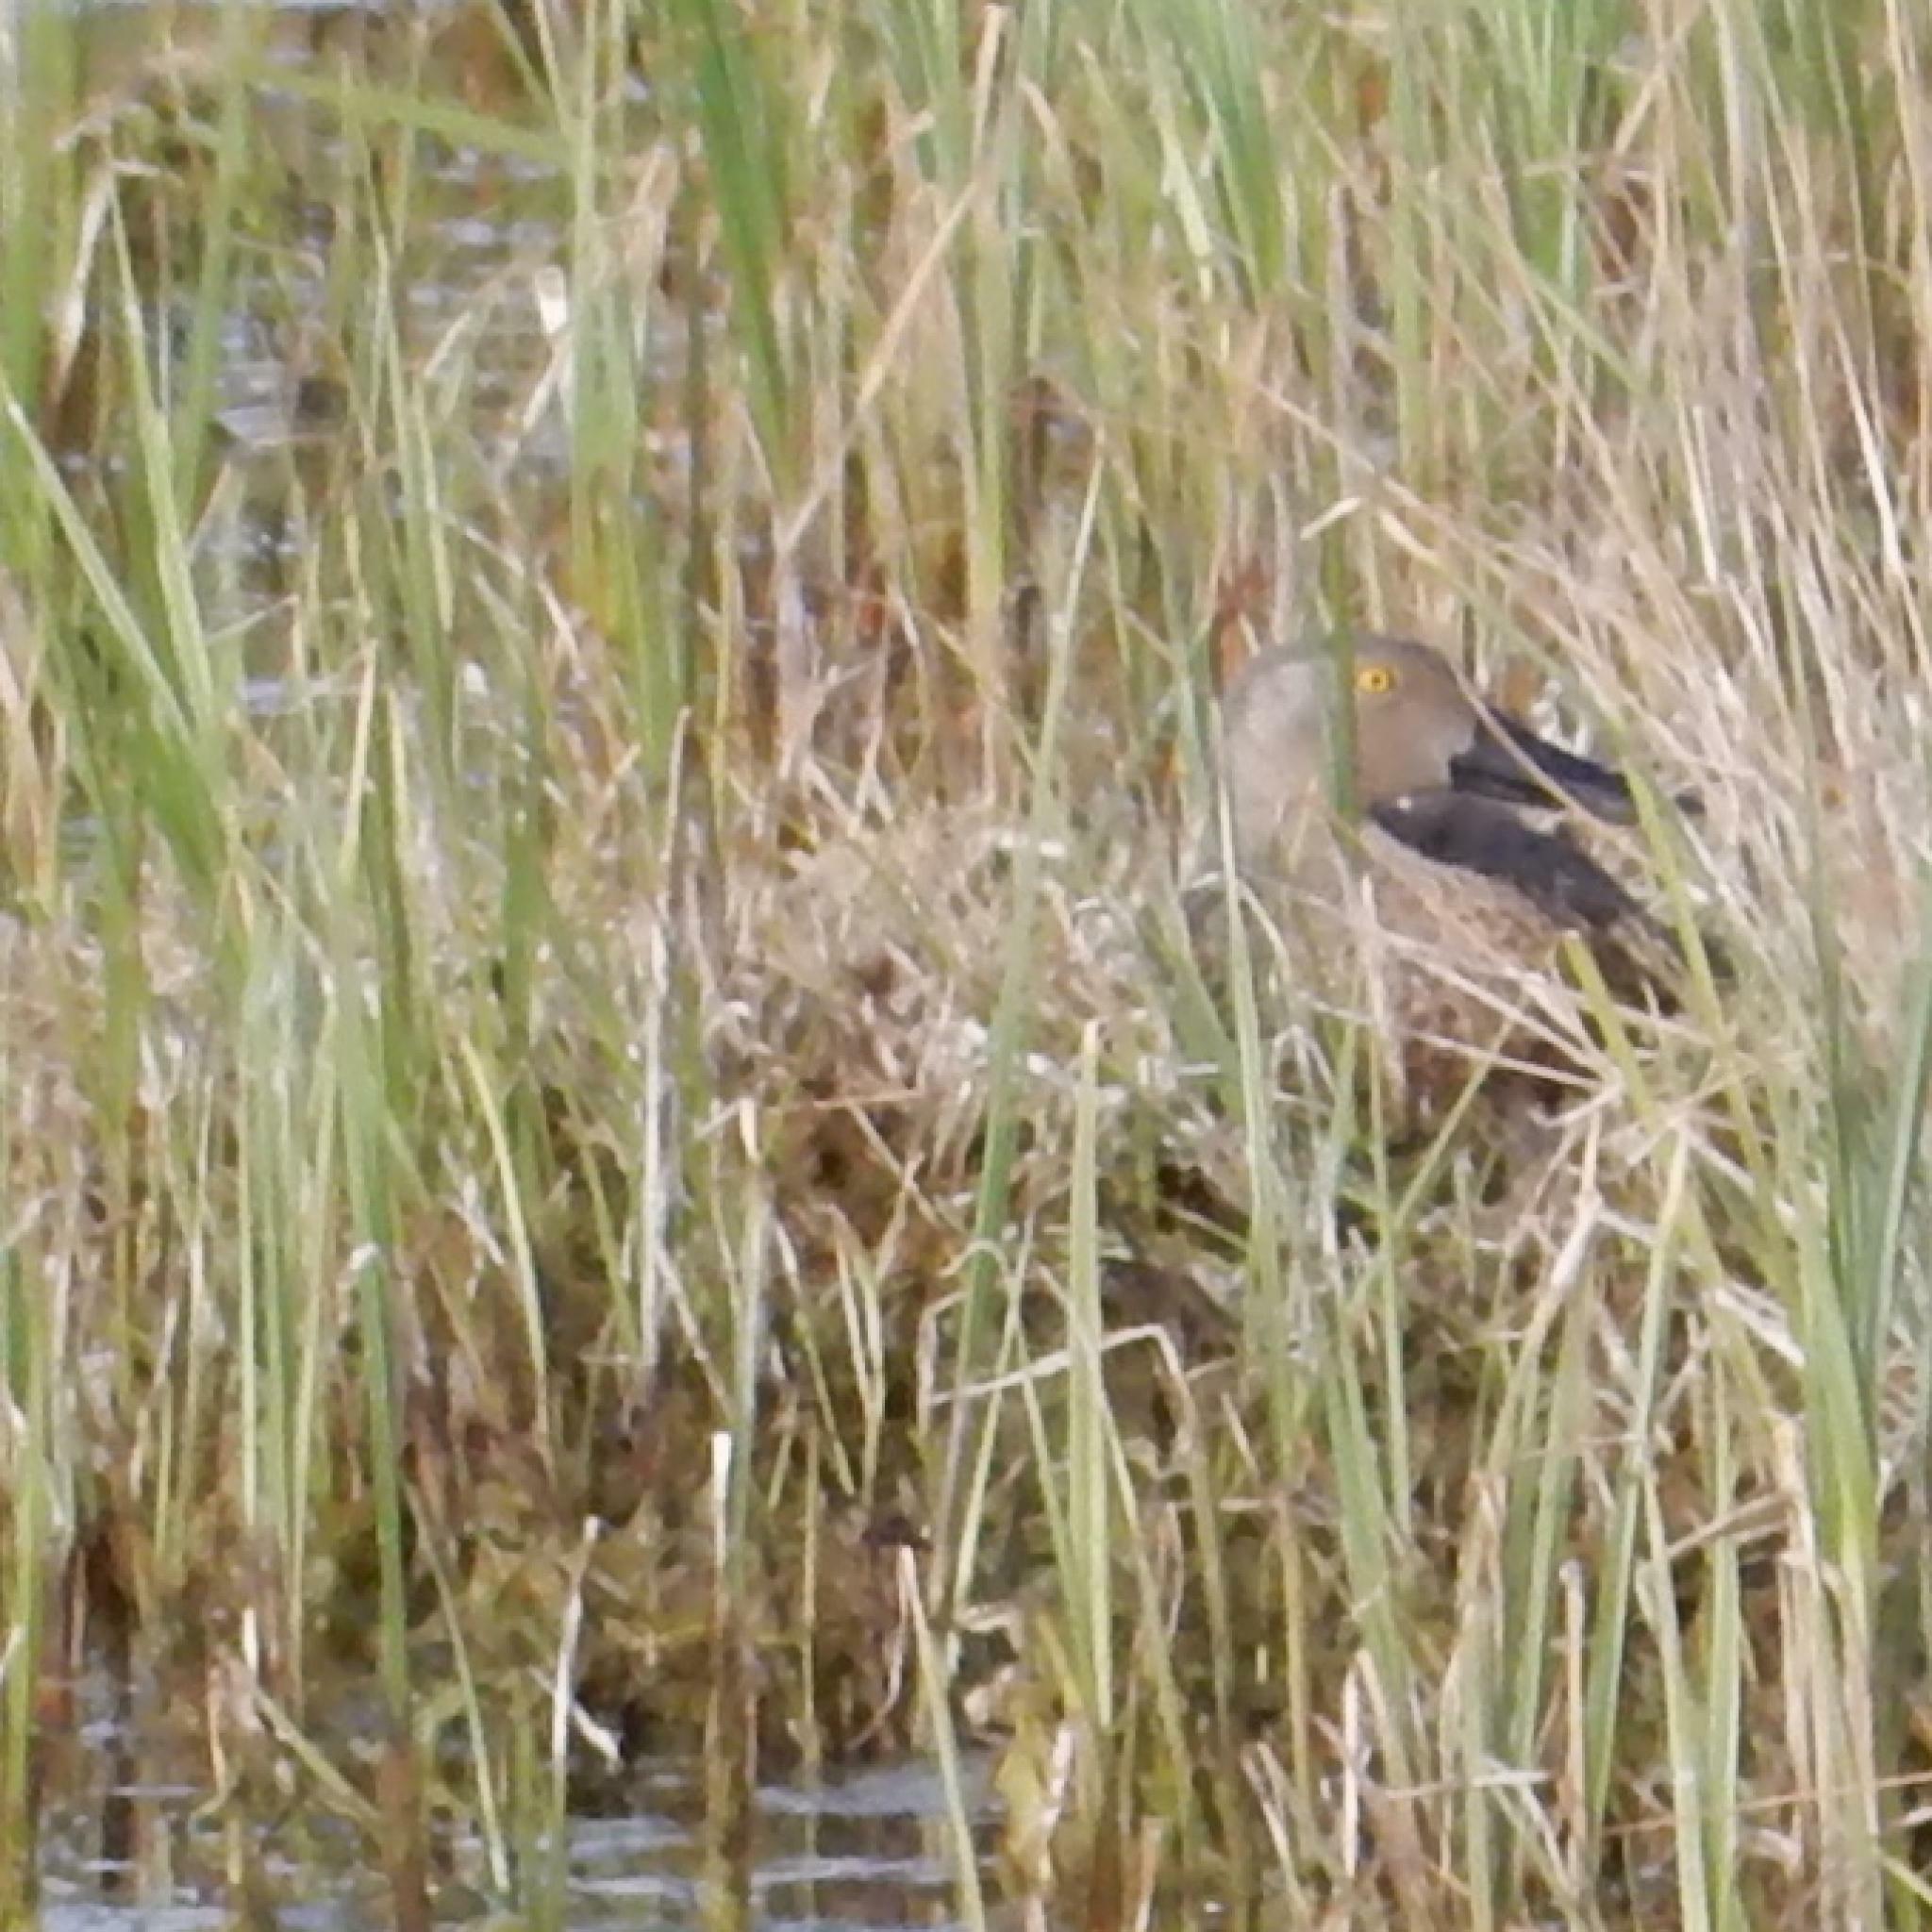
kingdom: Animalia
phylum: Chordata
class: Aves
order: Anseriformes
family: Anatidae
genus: Spatula
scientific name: Spatula smithii
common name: Cape shoveler
